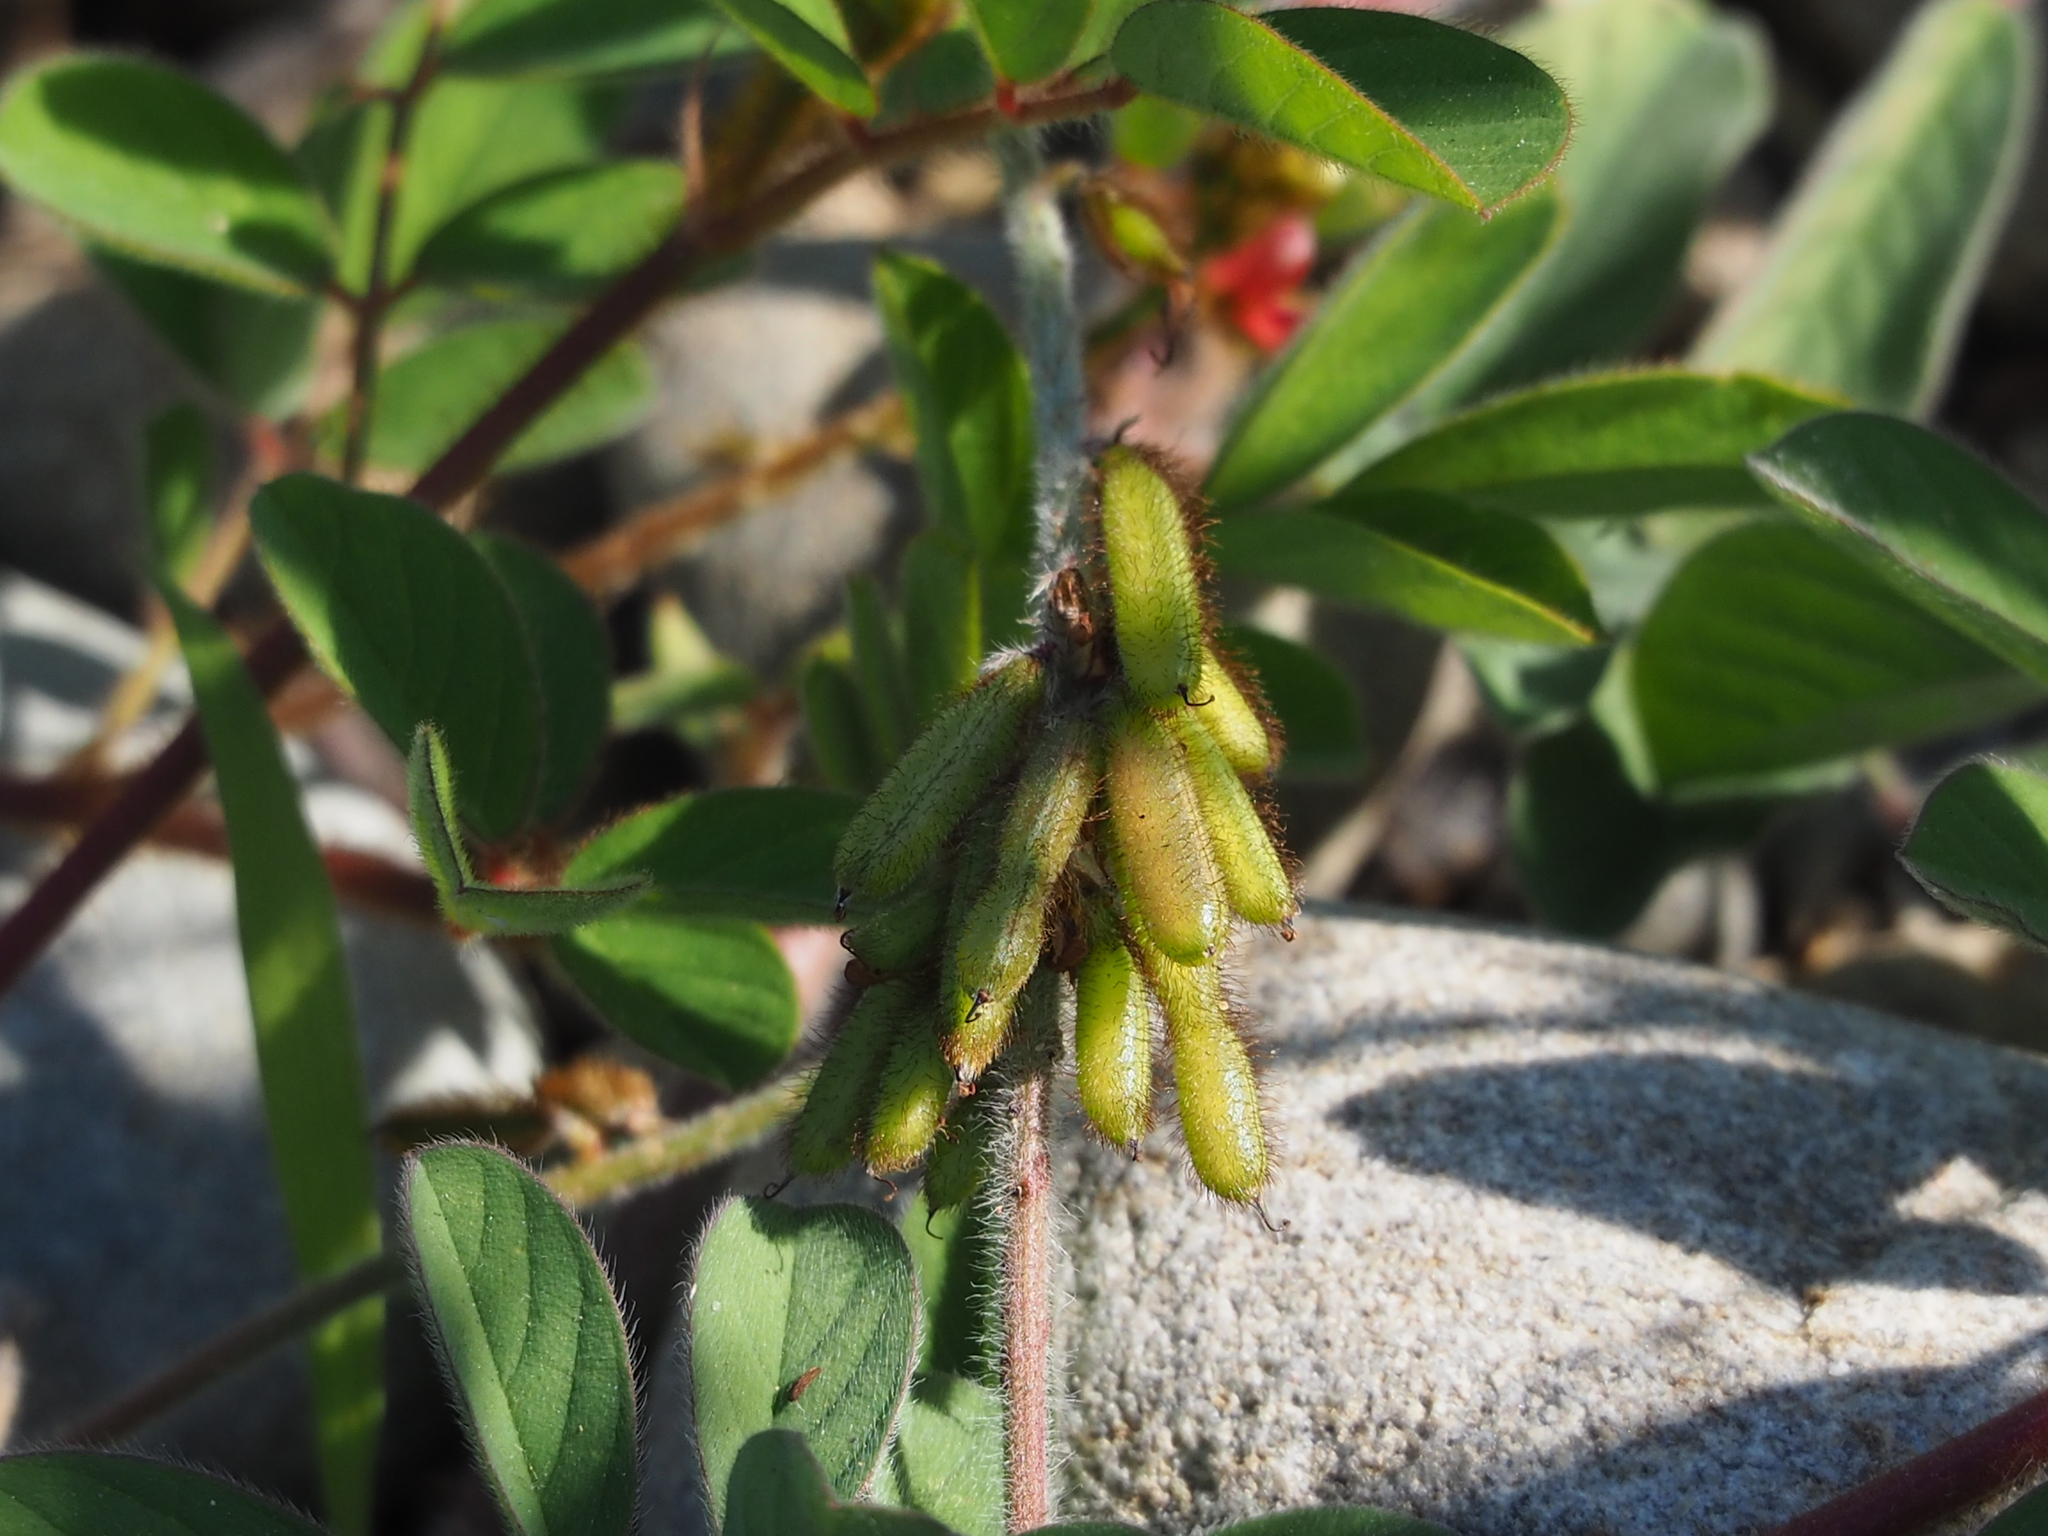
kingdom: Plantae
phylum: Tracheophyta
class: Magnoliopsida
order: Fabales
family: Fabaceae
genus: Indigofera
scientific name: Indigofera hirsuta
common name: Hairy indigo
